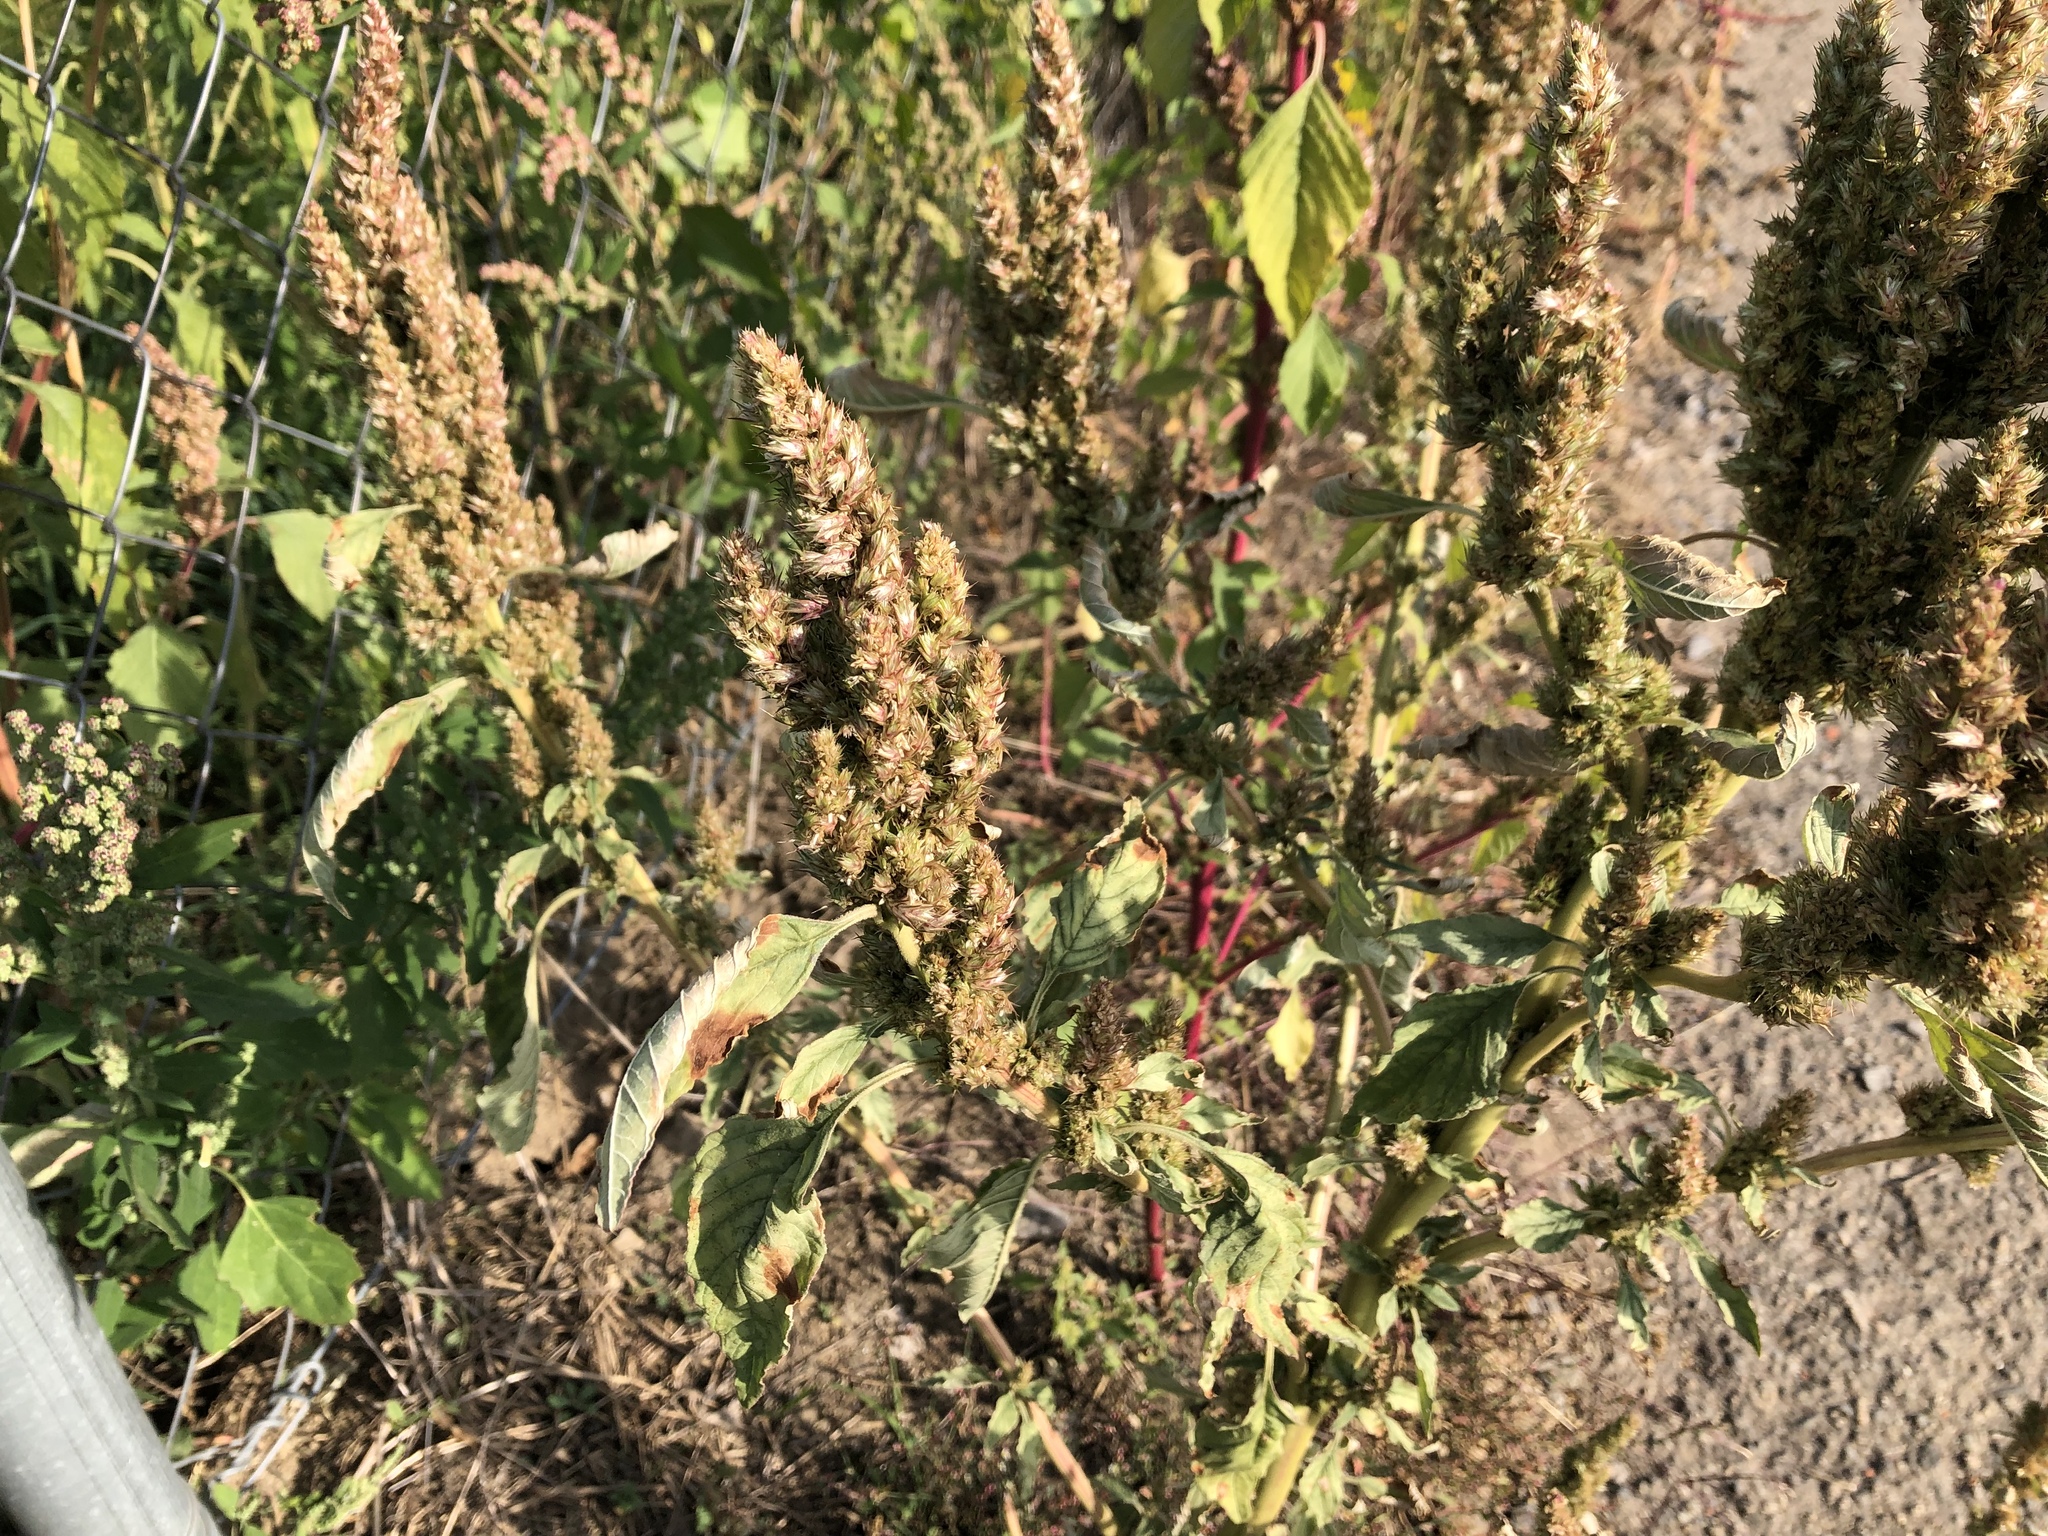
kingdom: Plantae
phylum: Tracheophyta
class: Magnoliopsida
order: Caryophyllales
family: Amaranthaceae
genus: Amaranthus
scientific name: Amaranthus retroflexus
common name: Redroot amaranth
